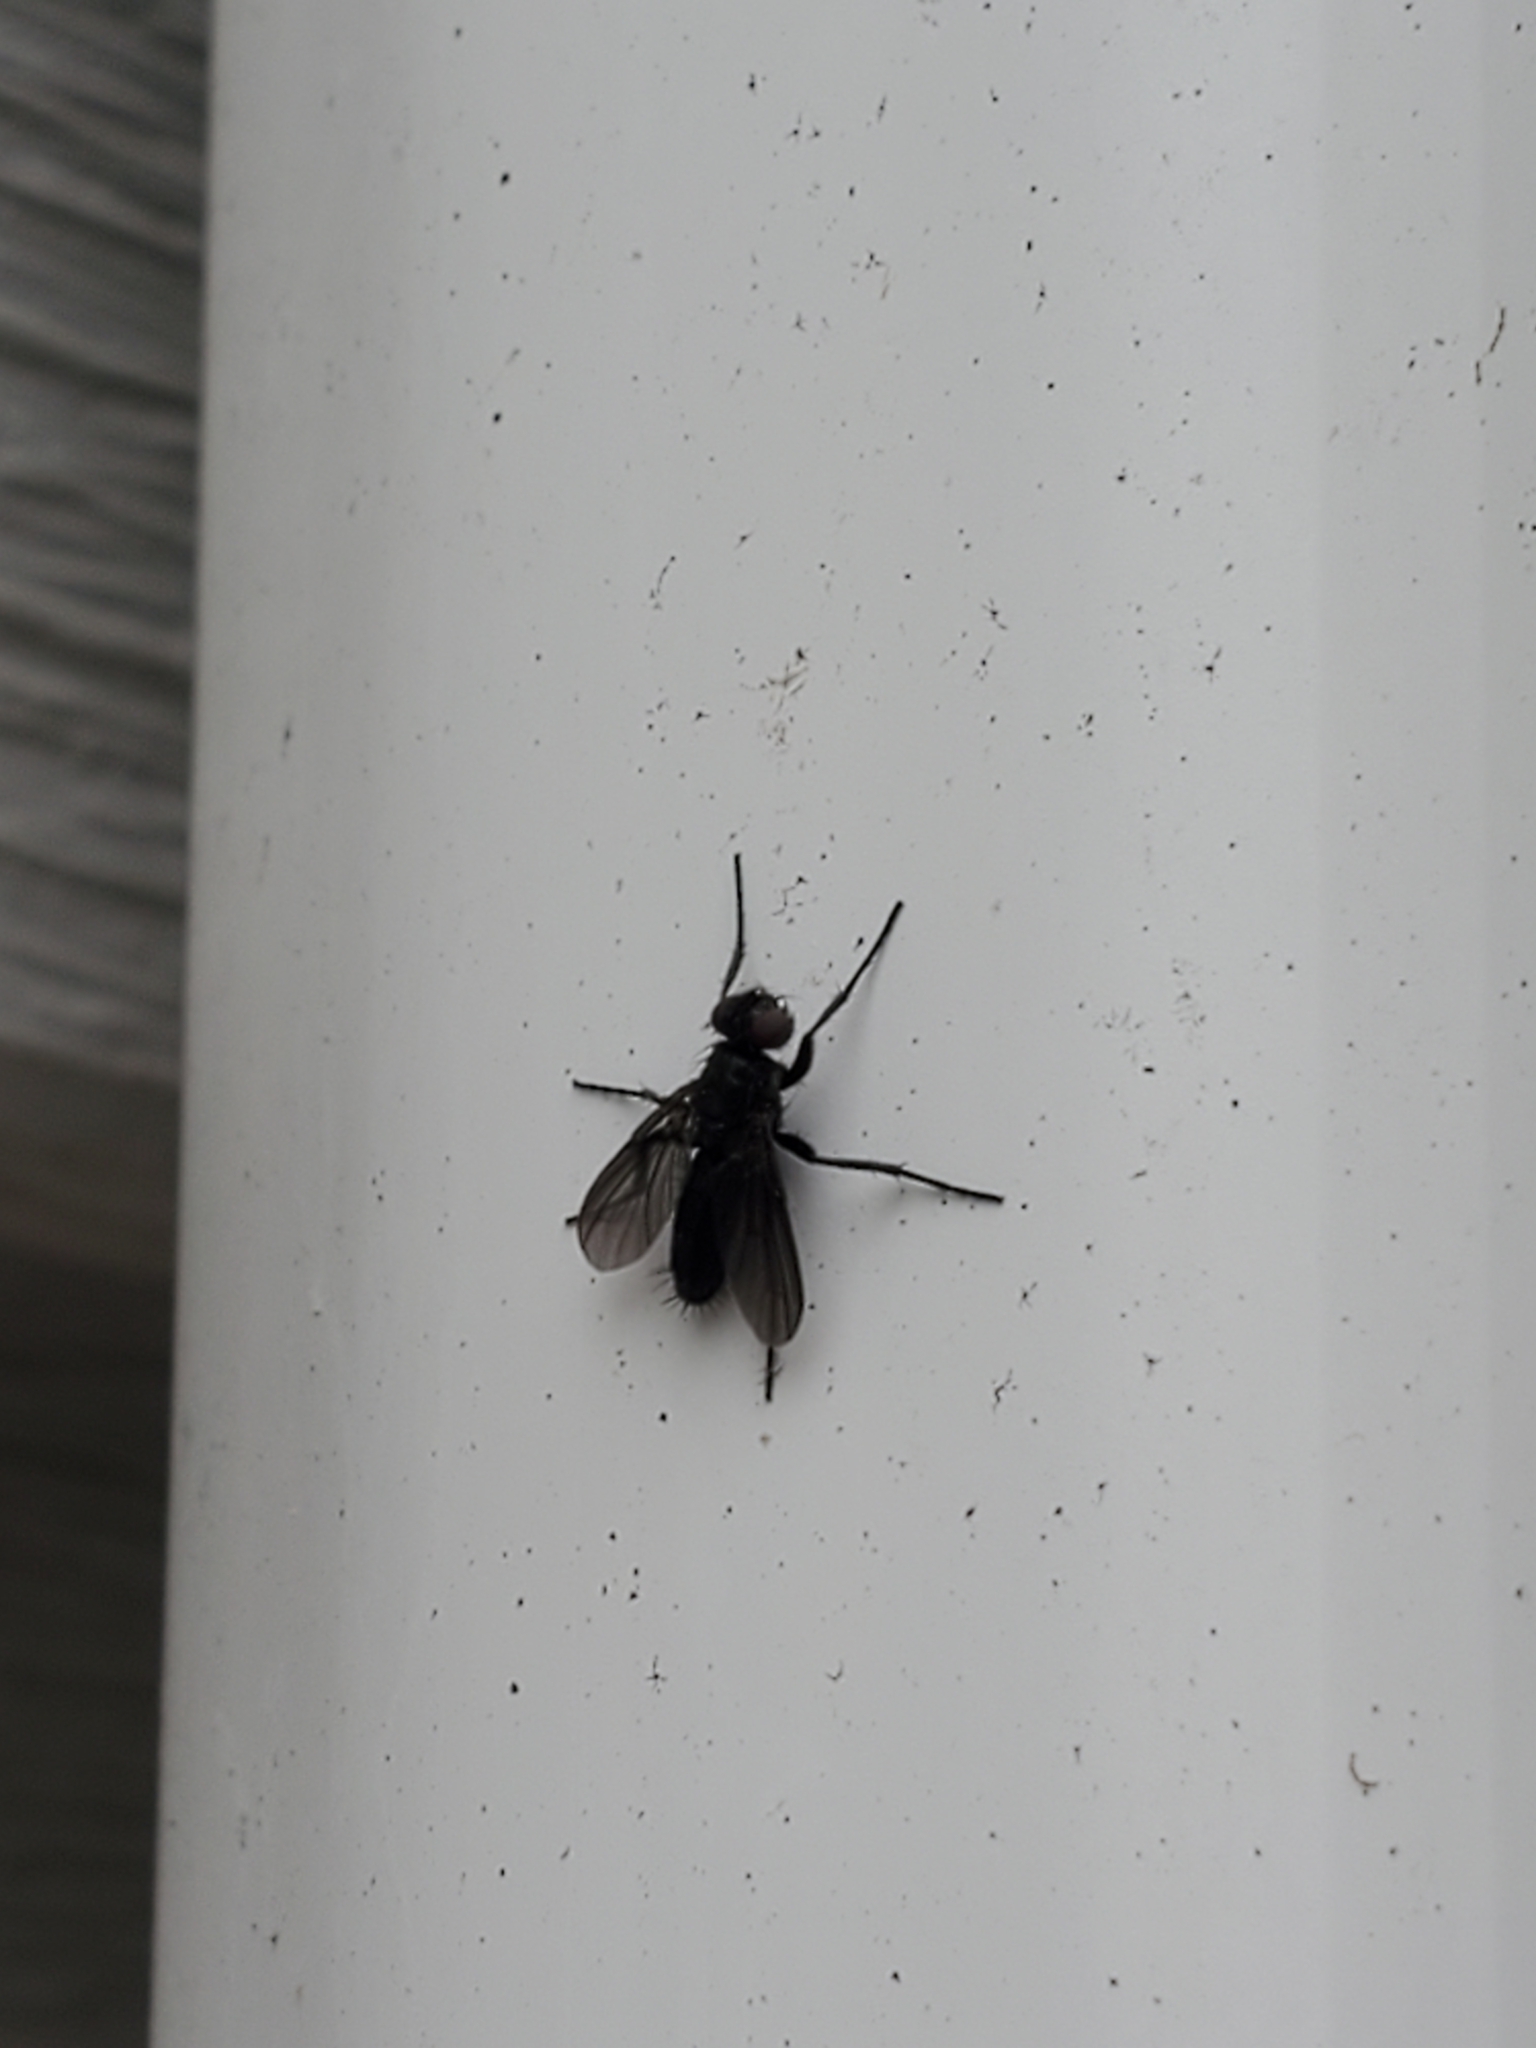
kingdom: Animalia
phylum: Arthropoda
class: Insecta
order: Diptera
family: Calliphoridae
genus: Melanophora
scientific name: Melanophora roralis
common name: Smoky-winged woodlouse-fly
